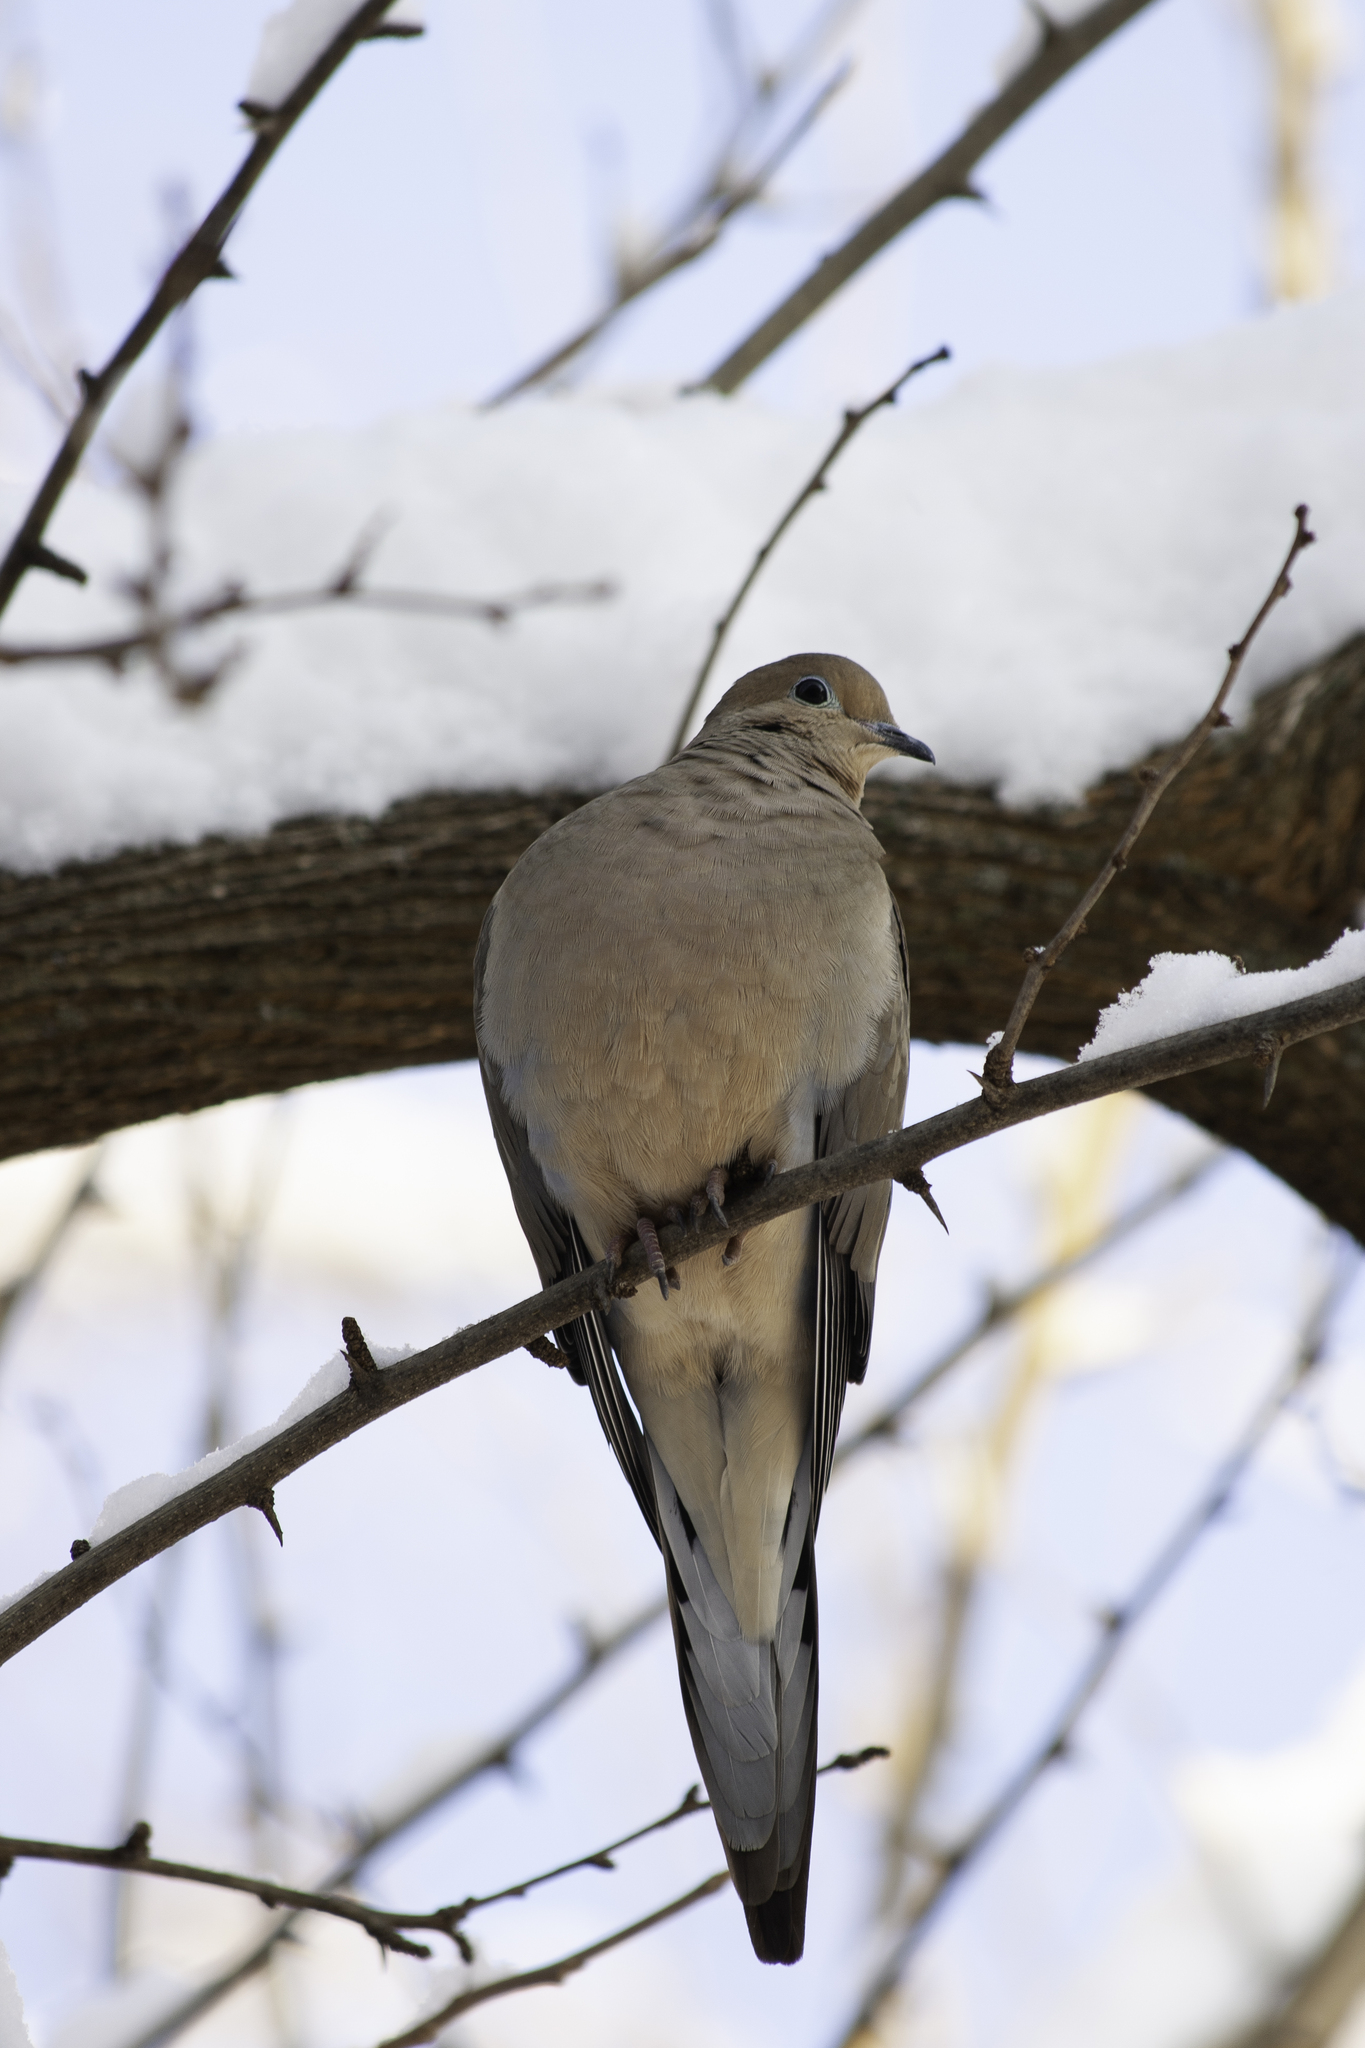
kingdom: Animalia
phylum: Chordata
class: Aves
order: Columbiformes
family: Columbidae
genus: Zenaida
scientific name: Zenaida macroura
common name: Mourning dove
